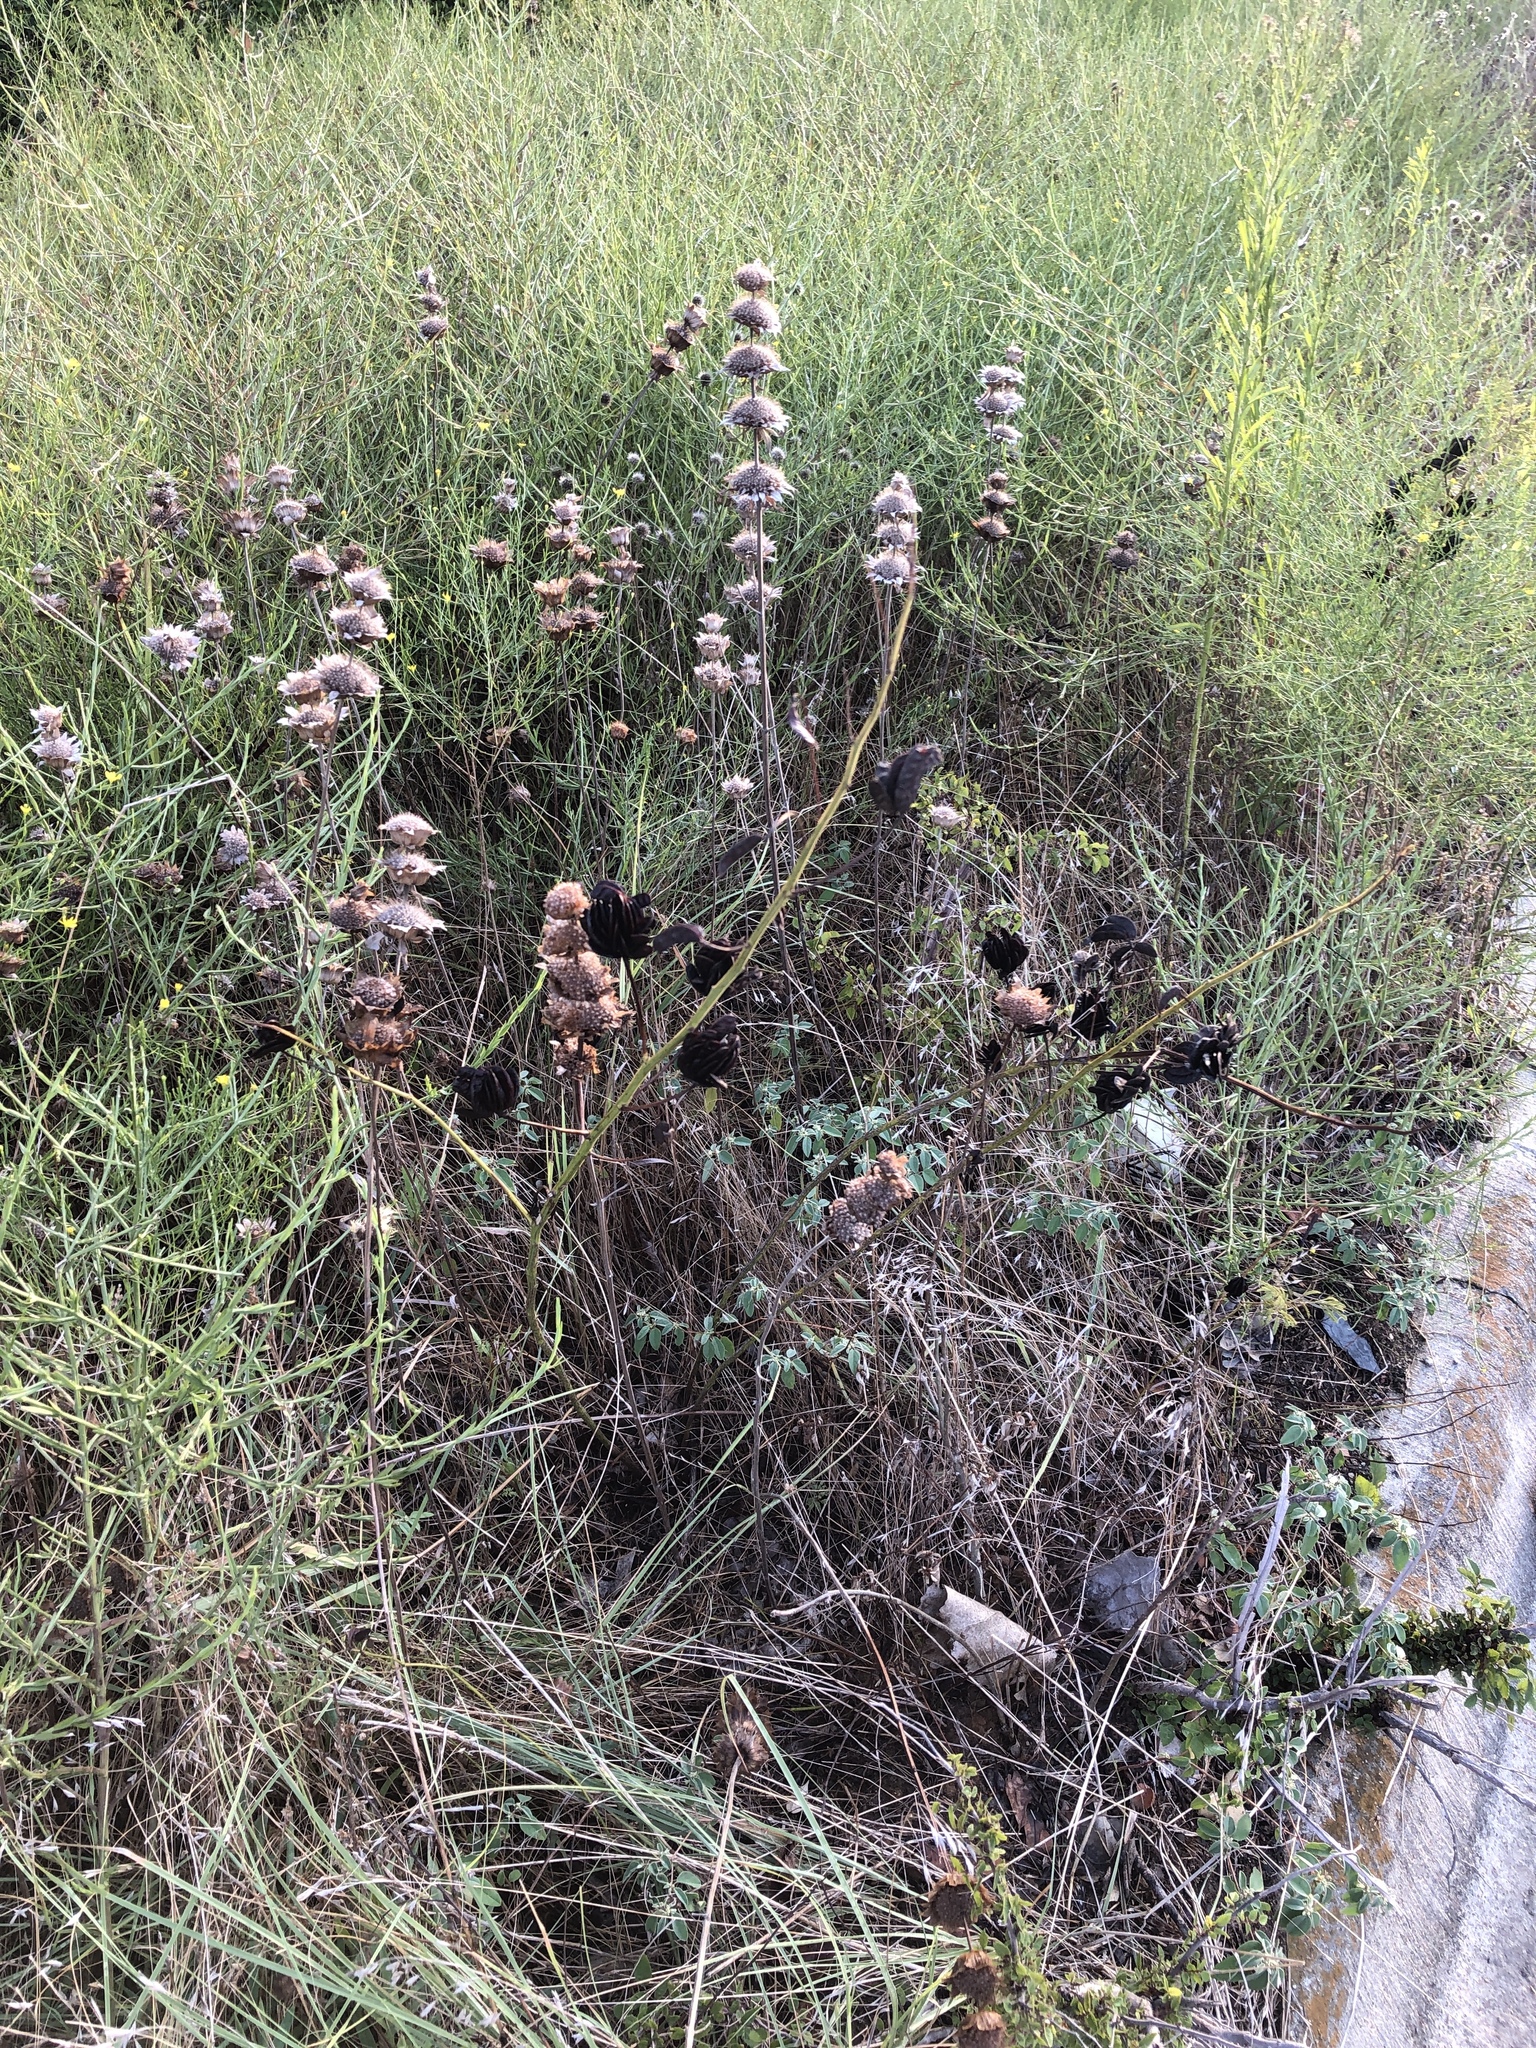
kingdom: Plantae
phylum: Tracheophyta
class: Magnoliopsida
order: Fabales
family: Fabaceae
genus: Desmanthus
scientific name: Desmanthus illinoensis
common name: Illinois bundle-flower
